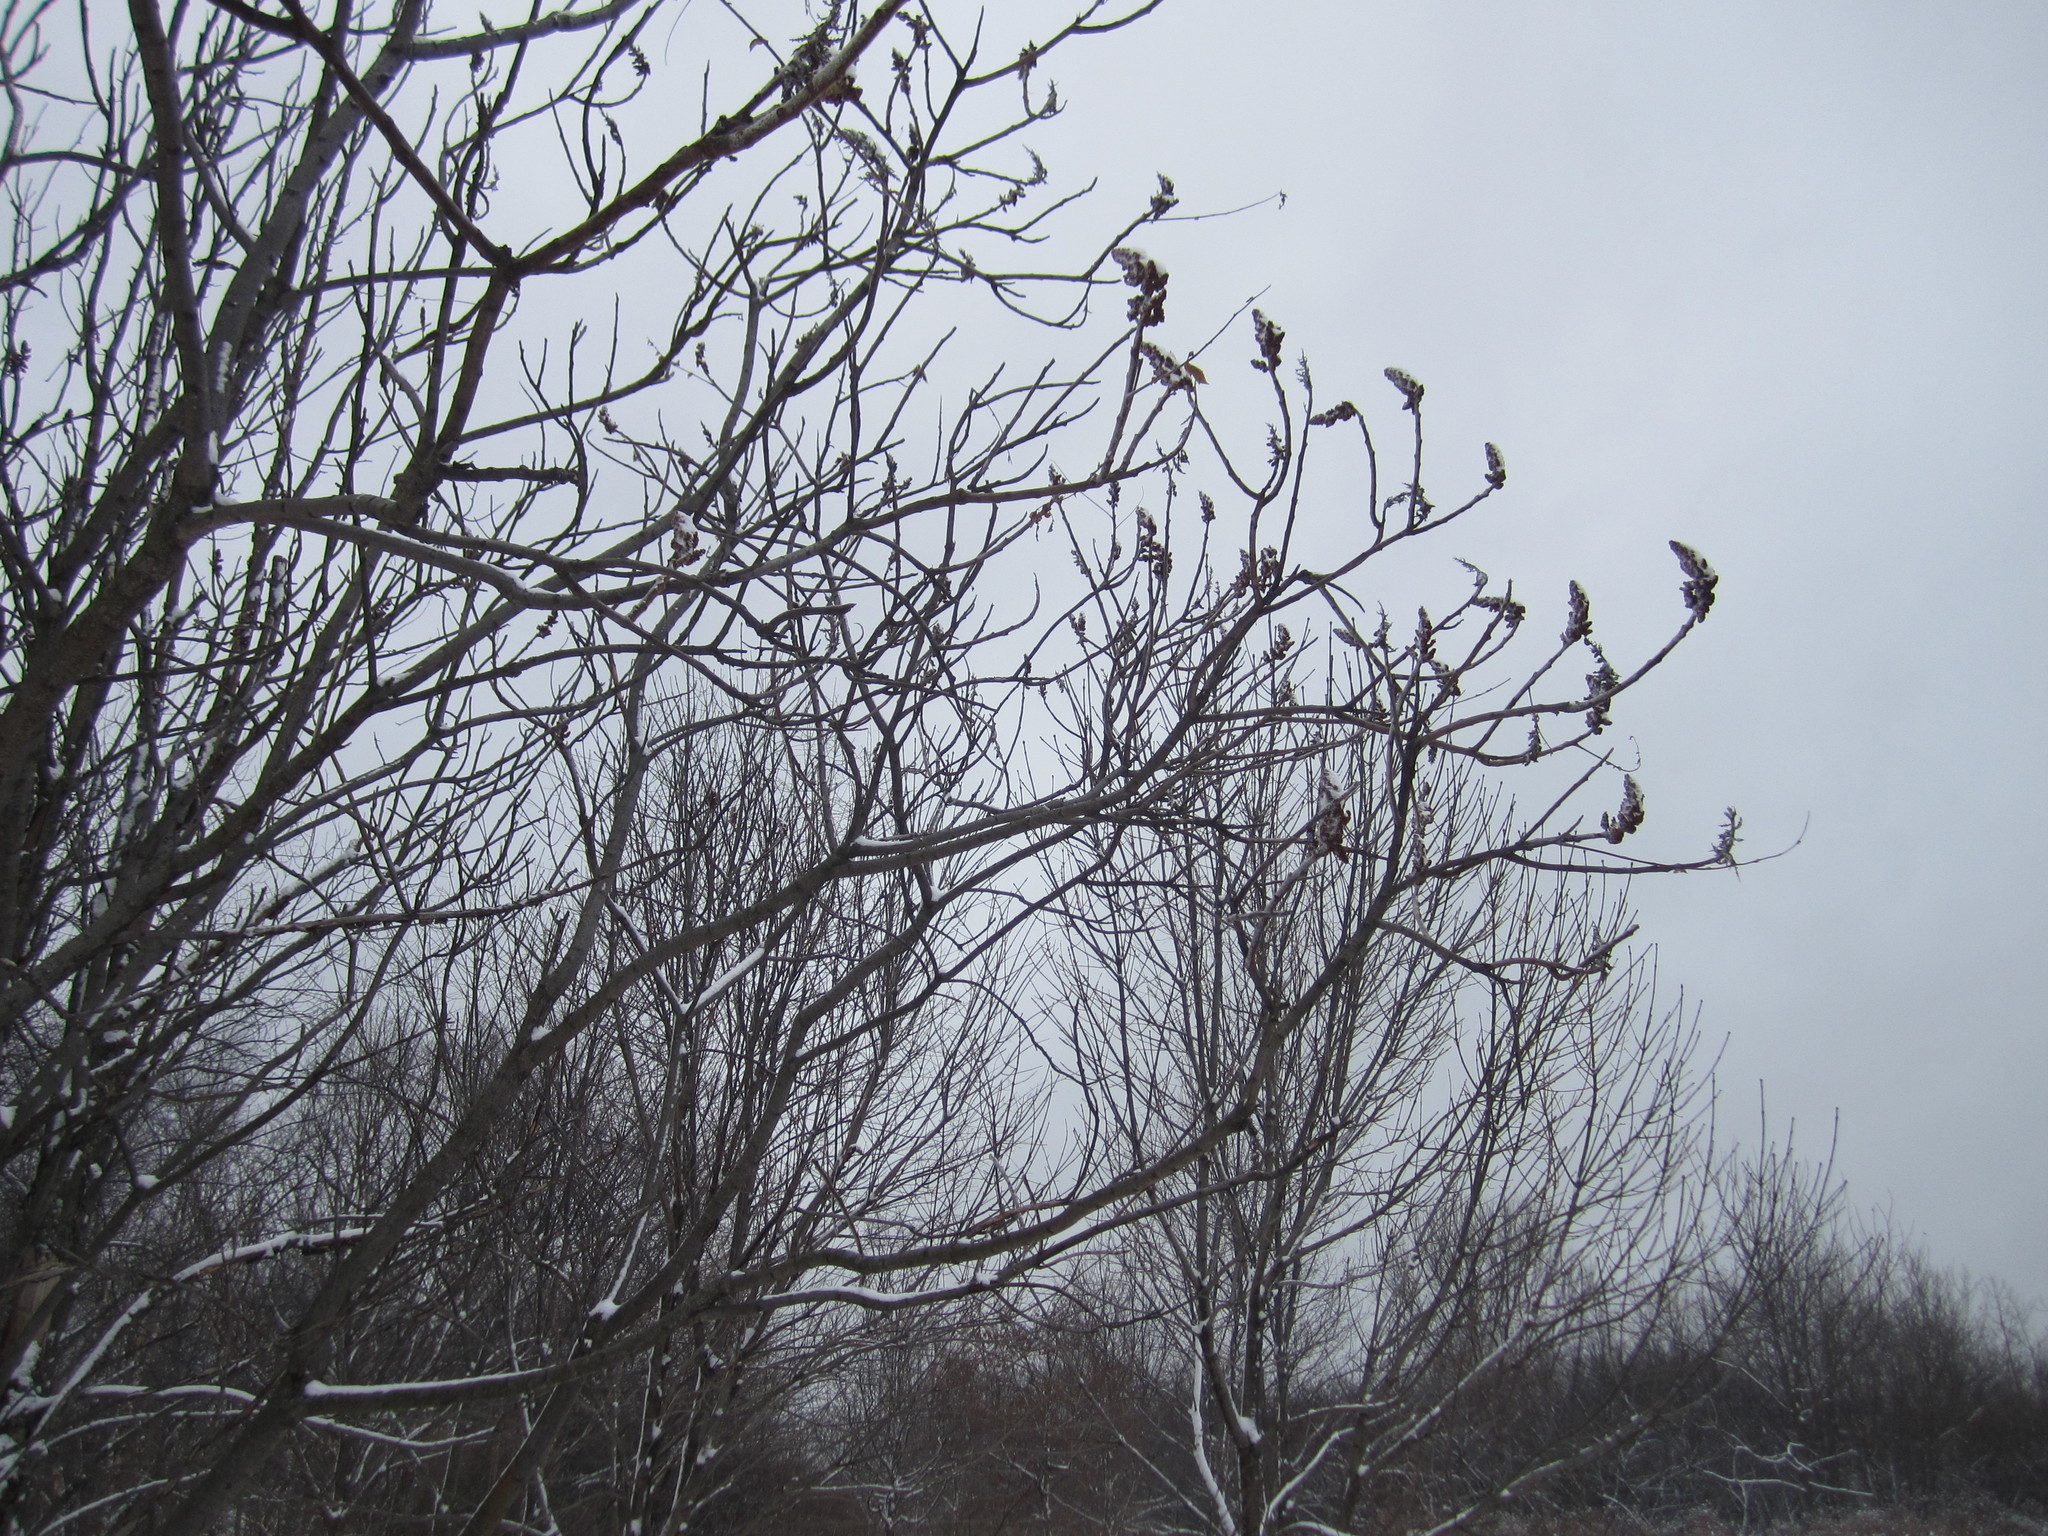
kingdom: Plantae
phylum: Tracheophyta
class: Magnoliopsida
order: Sapindales
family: Anacardiaceae
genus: Rhus
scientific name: Rhus typhina
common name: Staghorn sumac
